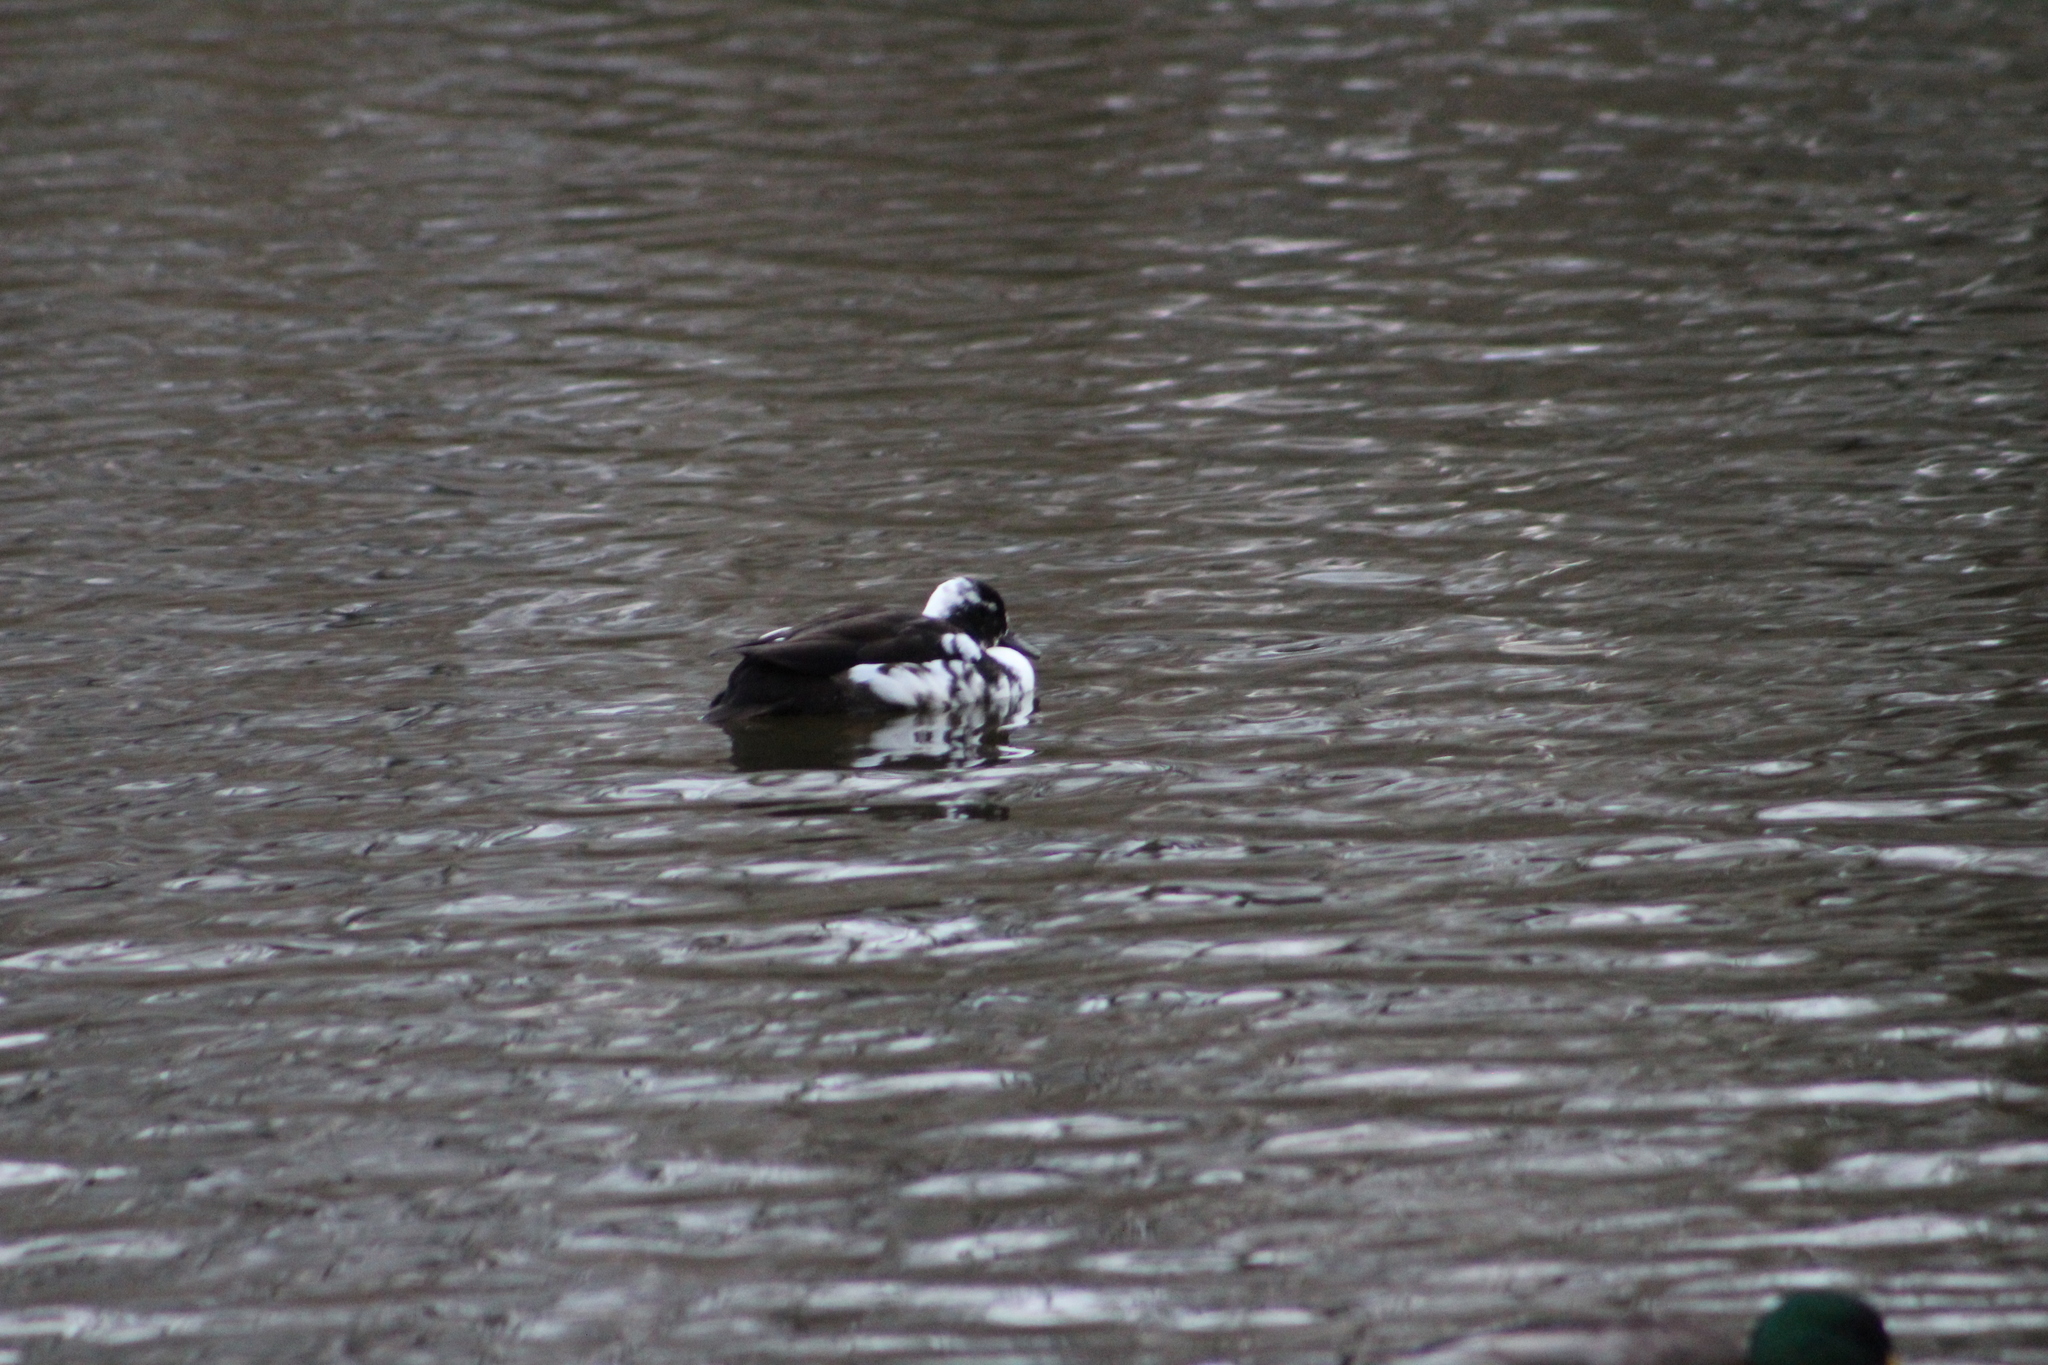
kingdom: Animalia
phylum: Chordata
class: Aves
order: Anseriformes
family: Anatidae
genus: Anas
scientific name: Anas platyrhynchos
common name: Mallard
